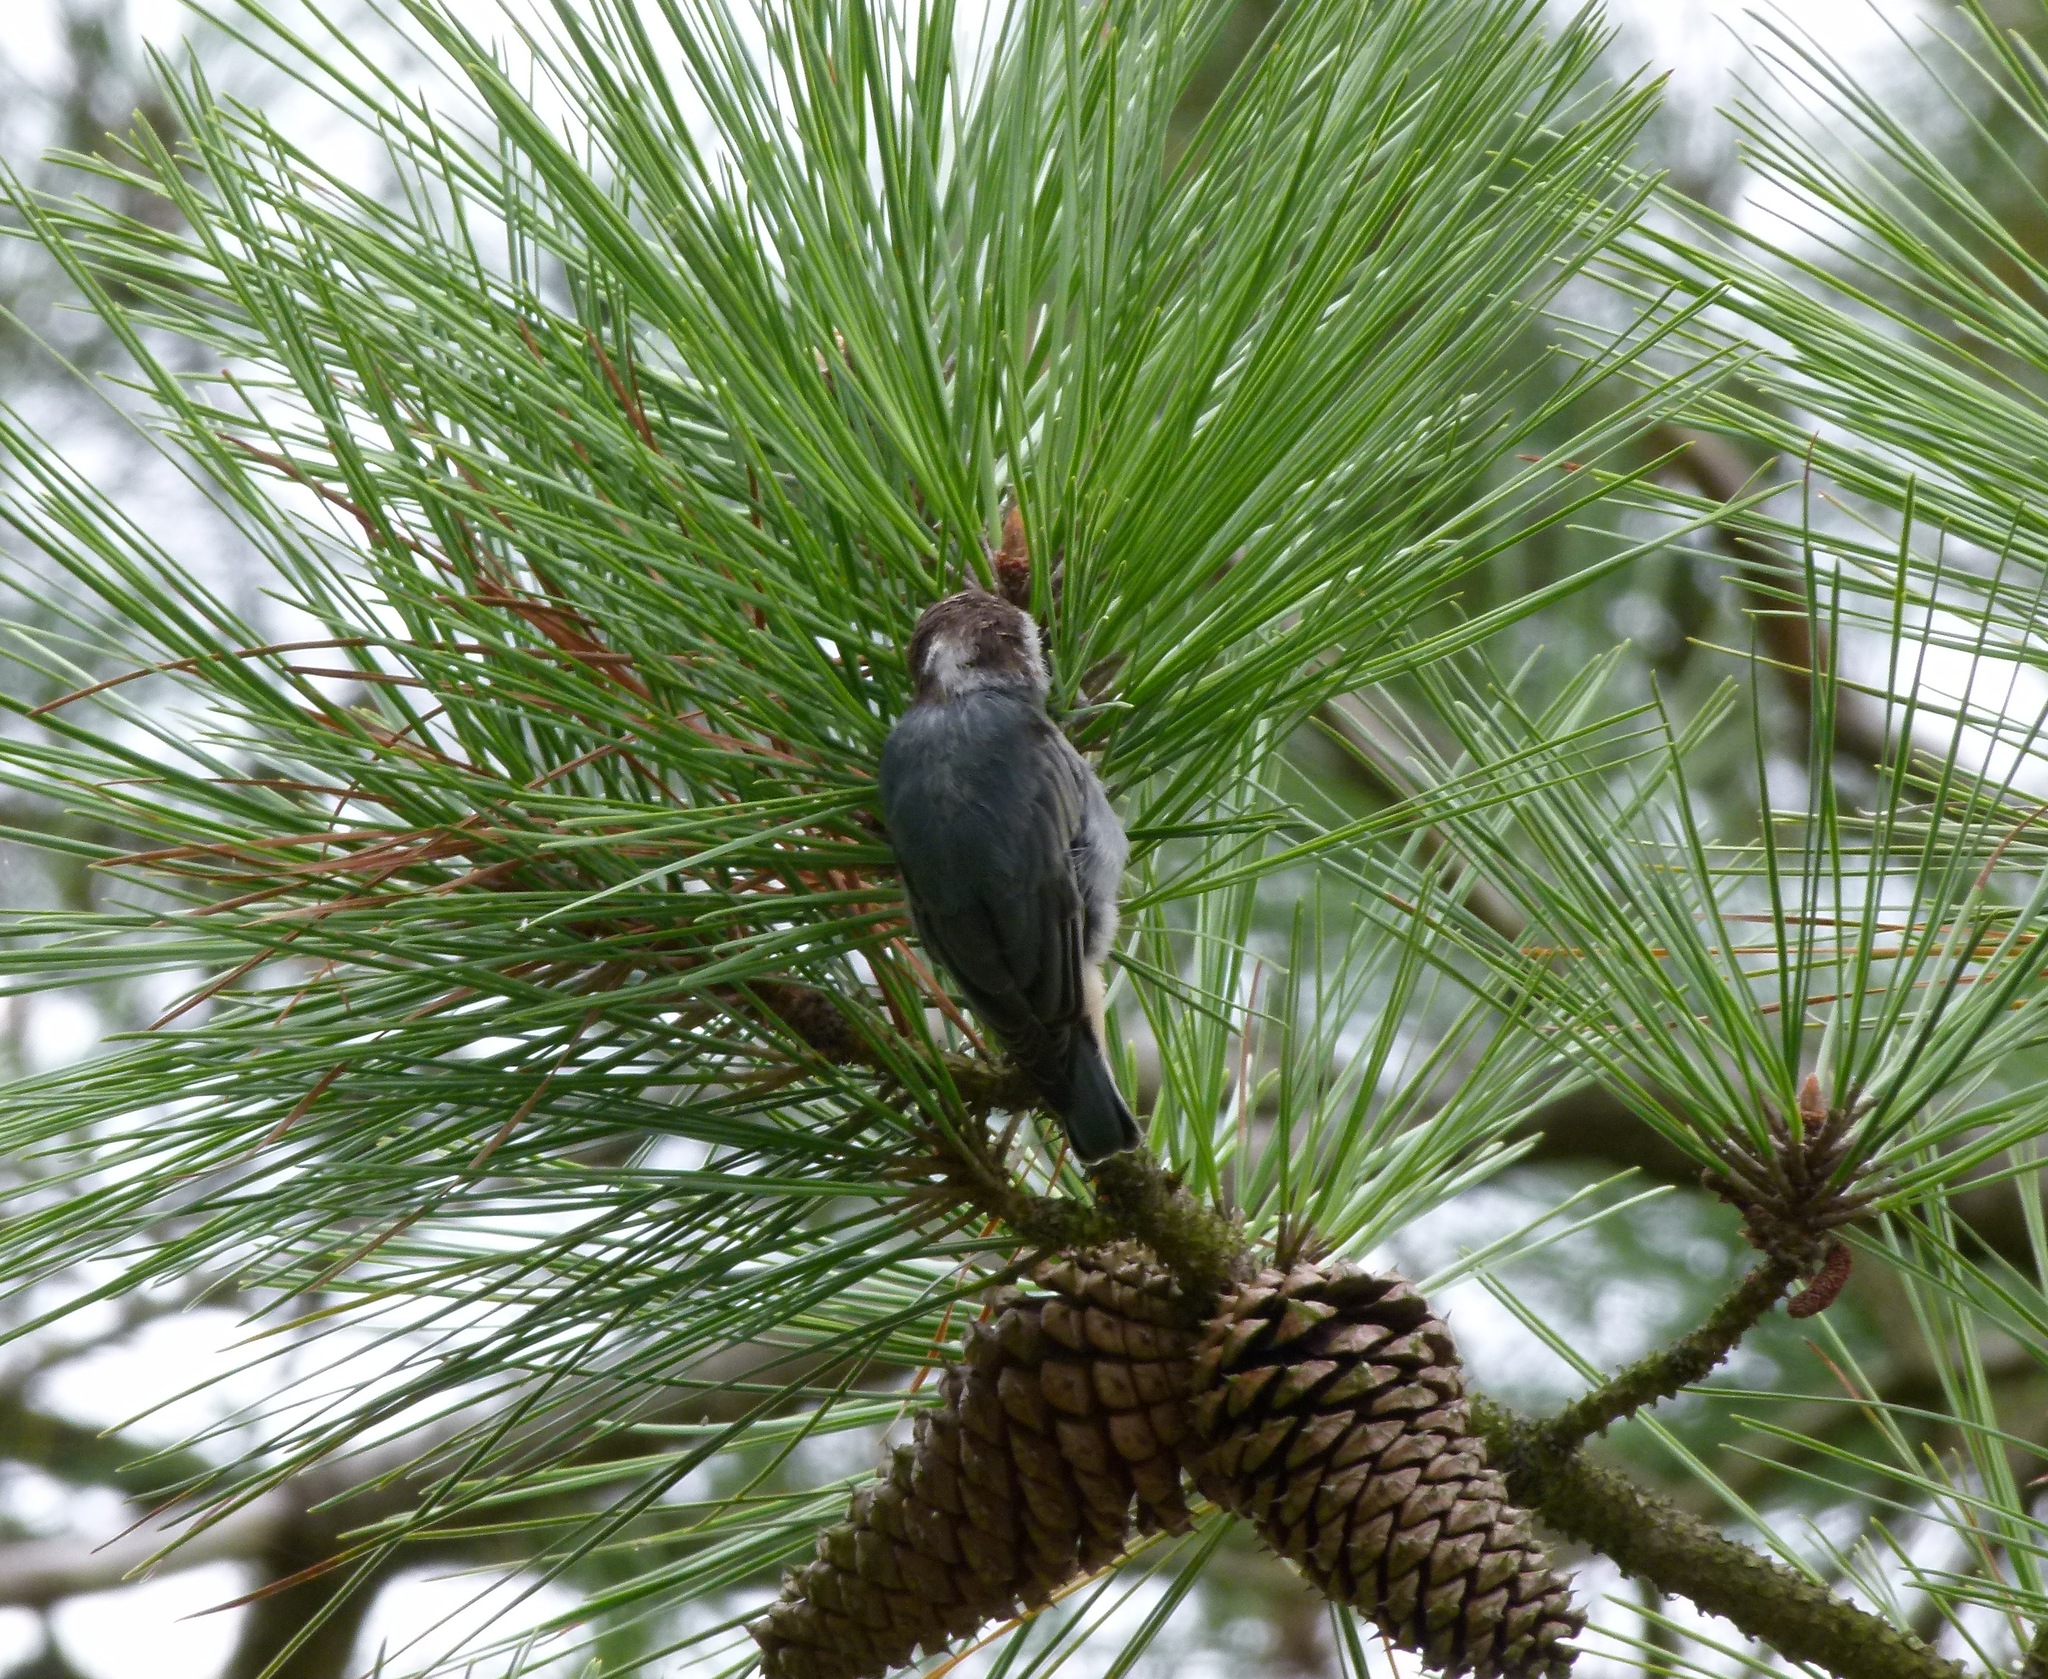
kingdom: Animalia
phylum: Chordata
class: Aves
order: Passeriformes
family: Sittidae
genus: Sitta
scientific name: Sitta pusilla
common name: Brown-headed nuthatch
